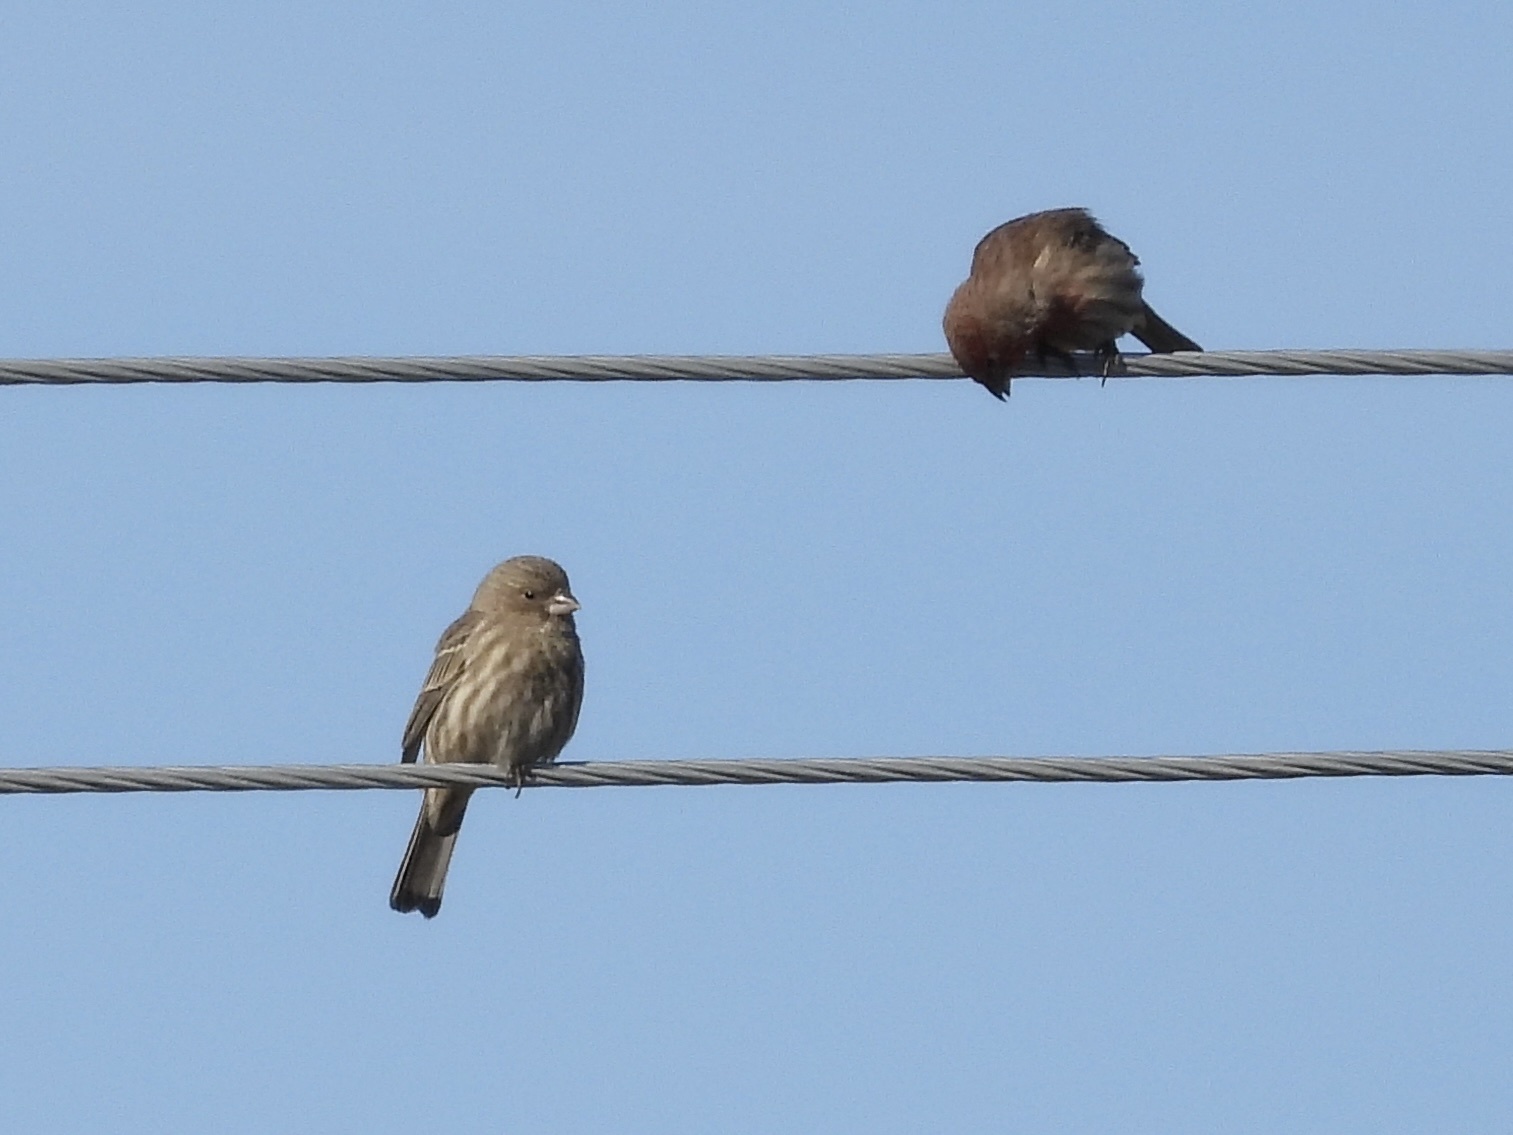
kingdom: Animalia
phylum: Chordata
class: Aves
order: Passeriformes
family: Fringillidae
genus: Haemorhous
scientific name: Haemorhous mexicanus
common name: House finch
